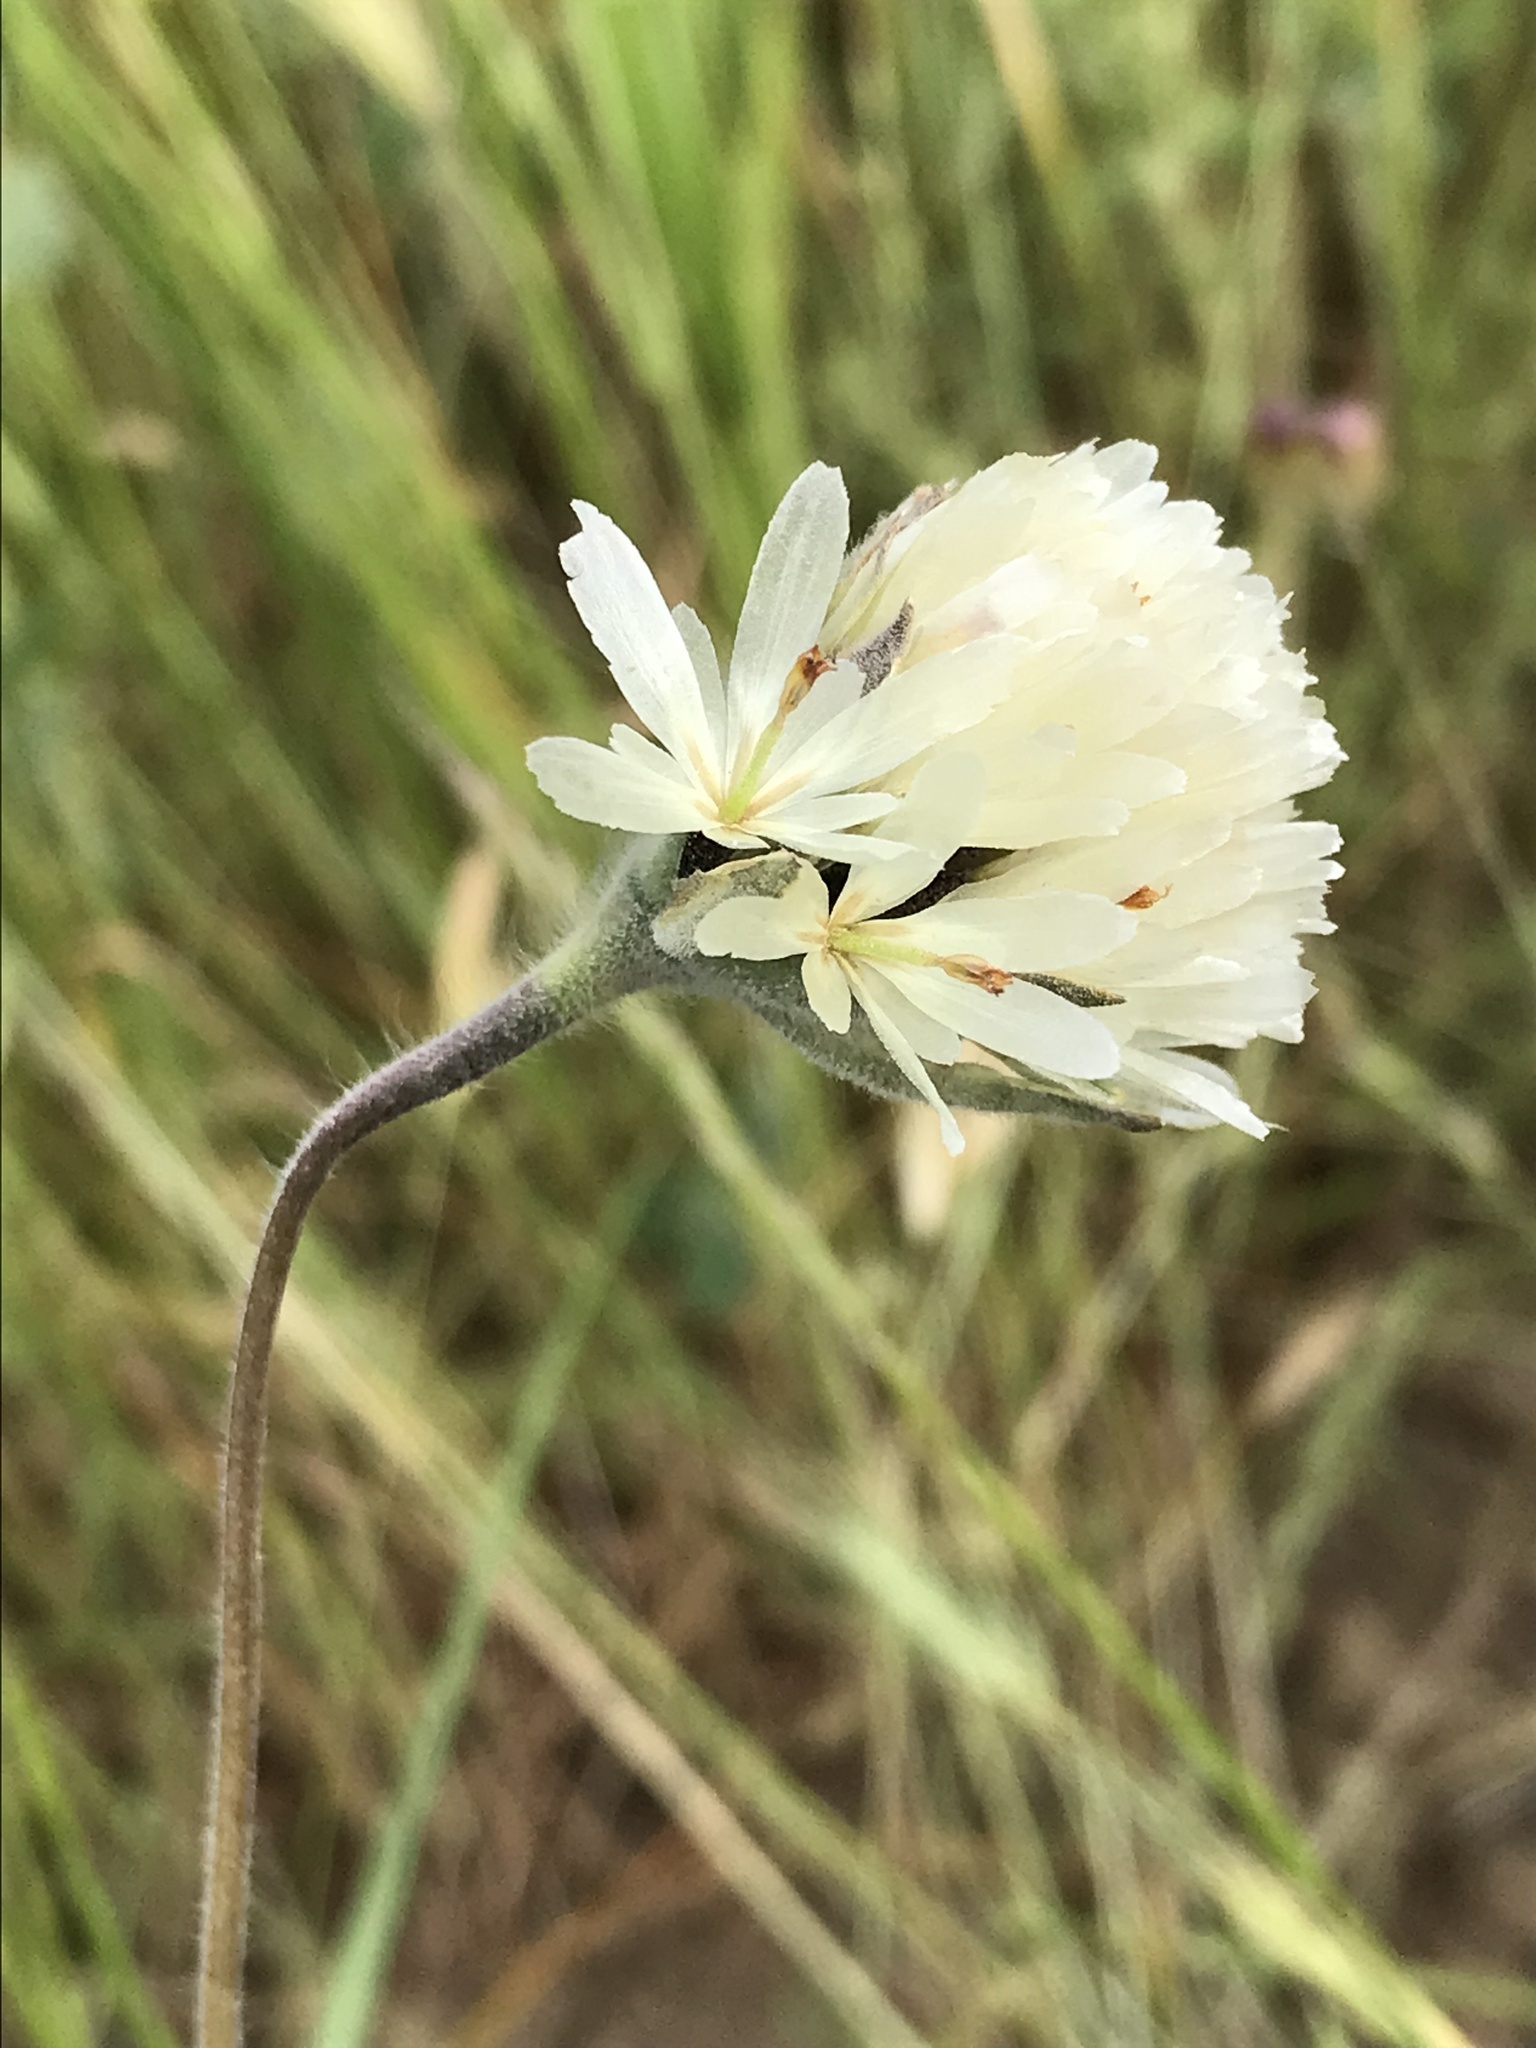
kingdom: Plantae
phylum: Tracheophyta
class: Magnoliopsida
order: Asterales
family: Asteraceae
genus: Achyrachaena
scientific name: Achyrachaena mollis
